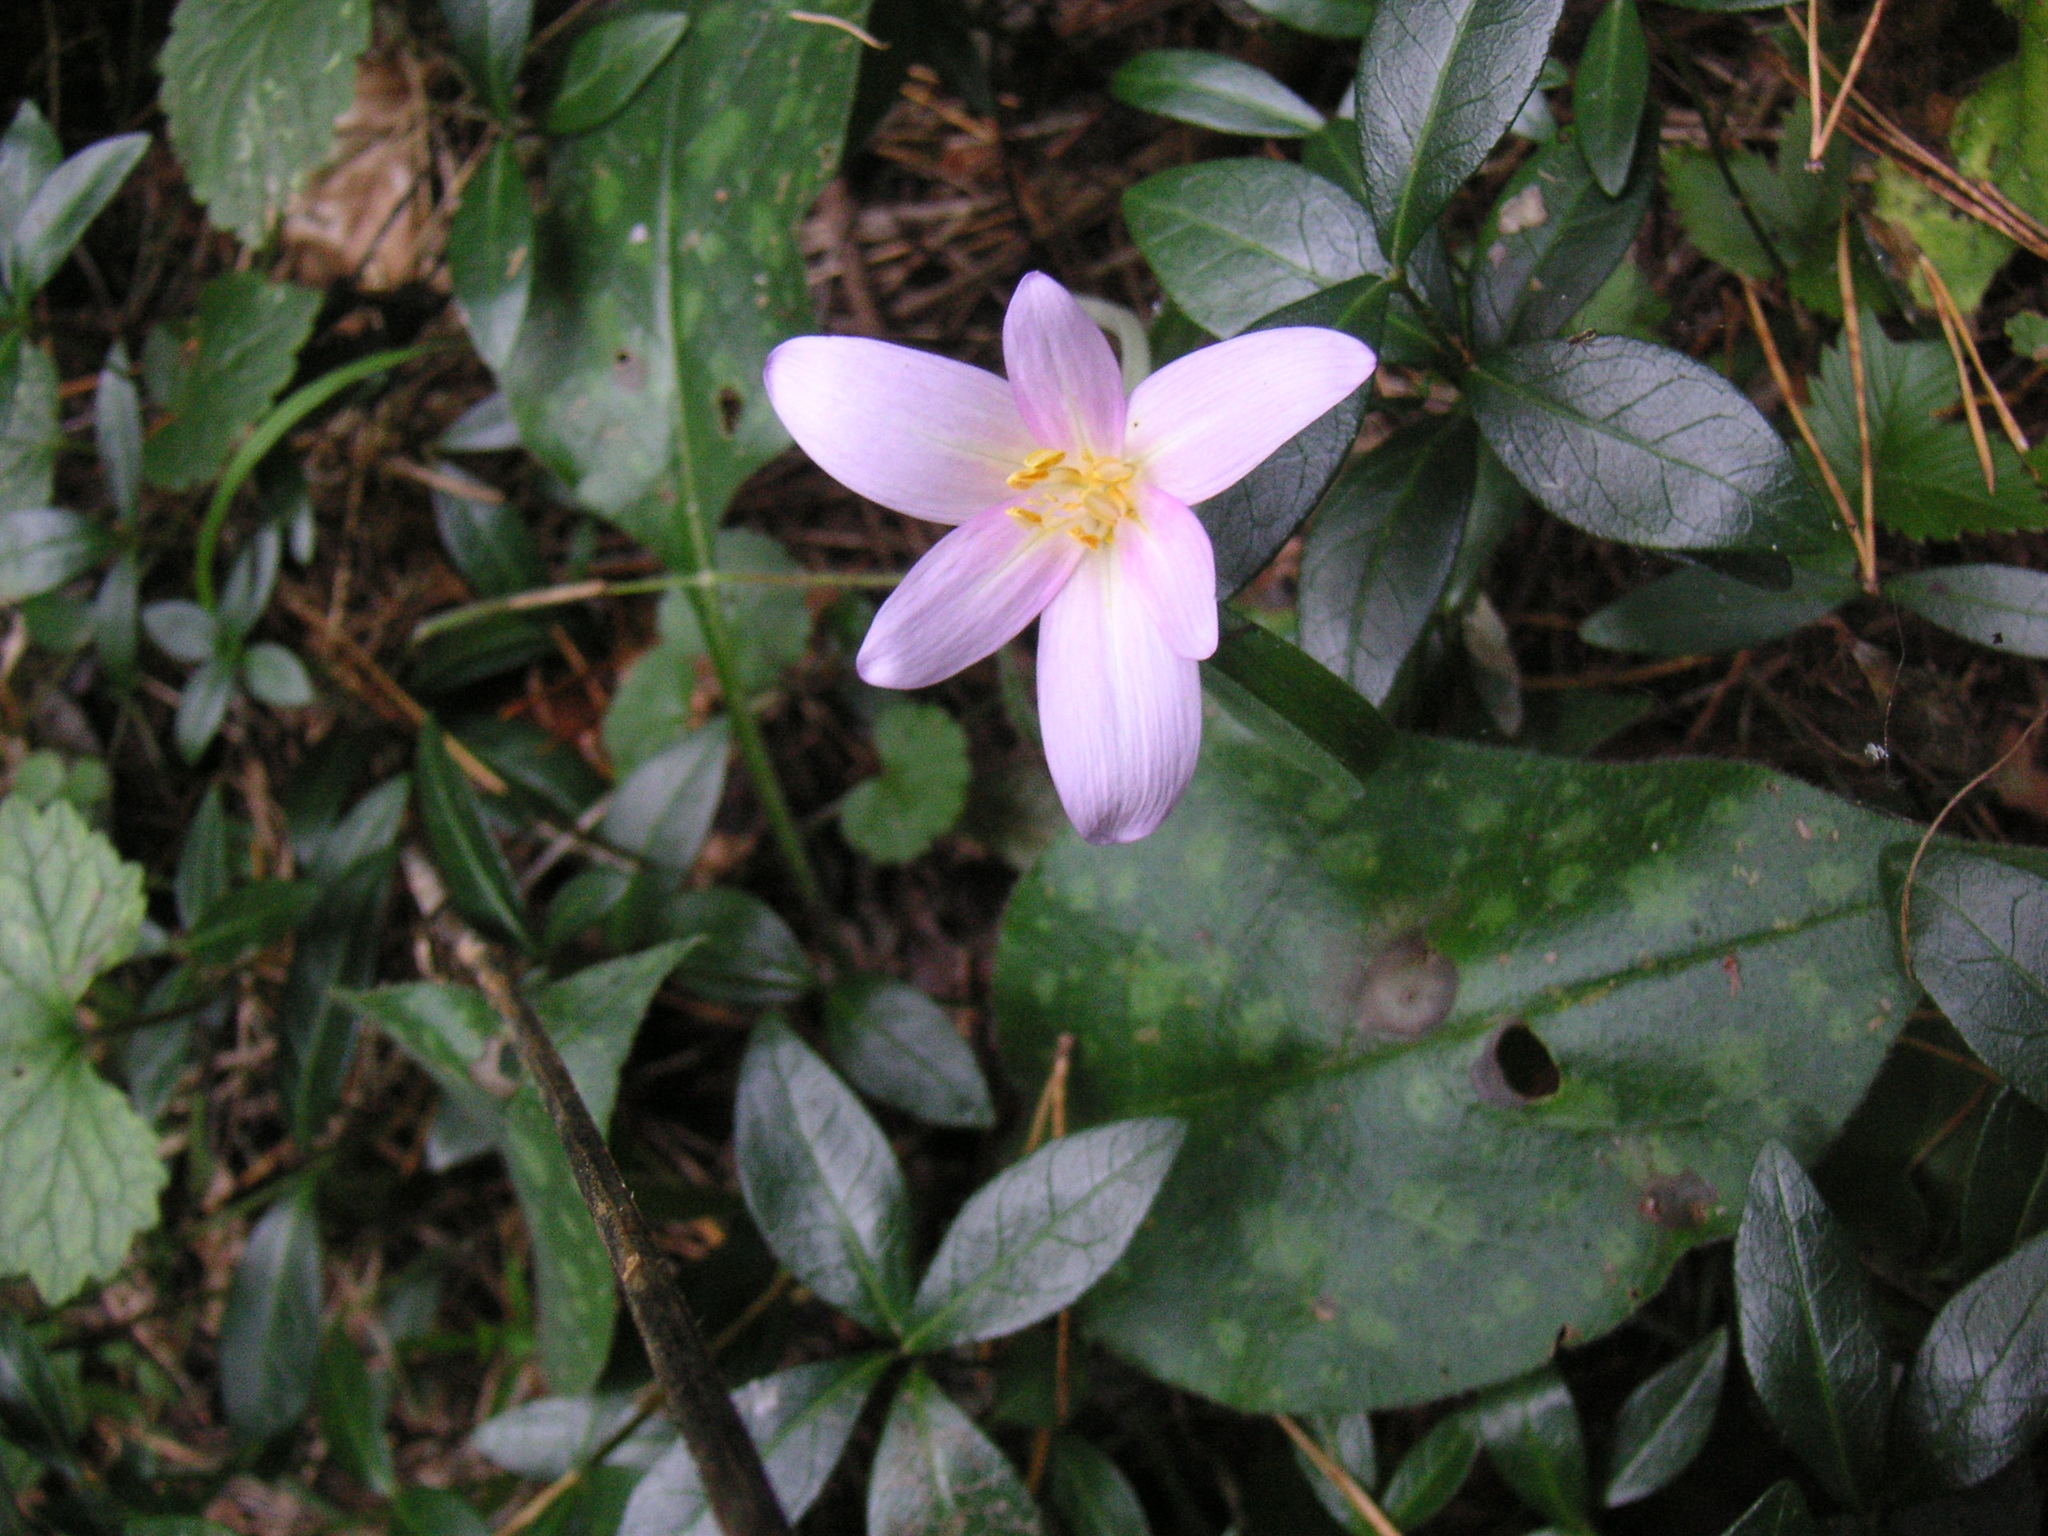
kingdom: Plantae
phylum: Tracheophyta
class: Liliopsida
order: Liliales
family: Colchicaceae
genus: Colchicum
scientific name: Colchicum autumnale
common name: Autumn crocus
